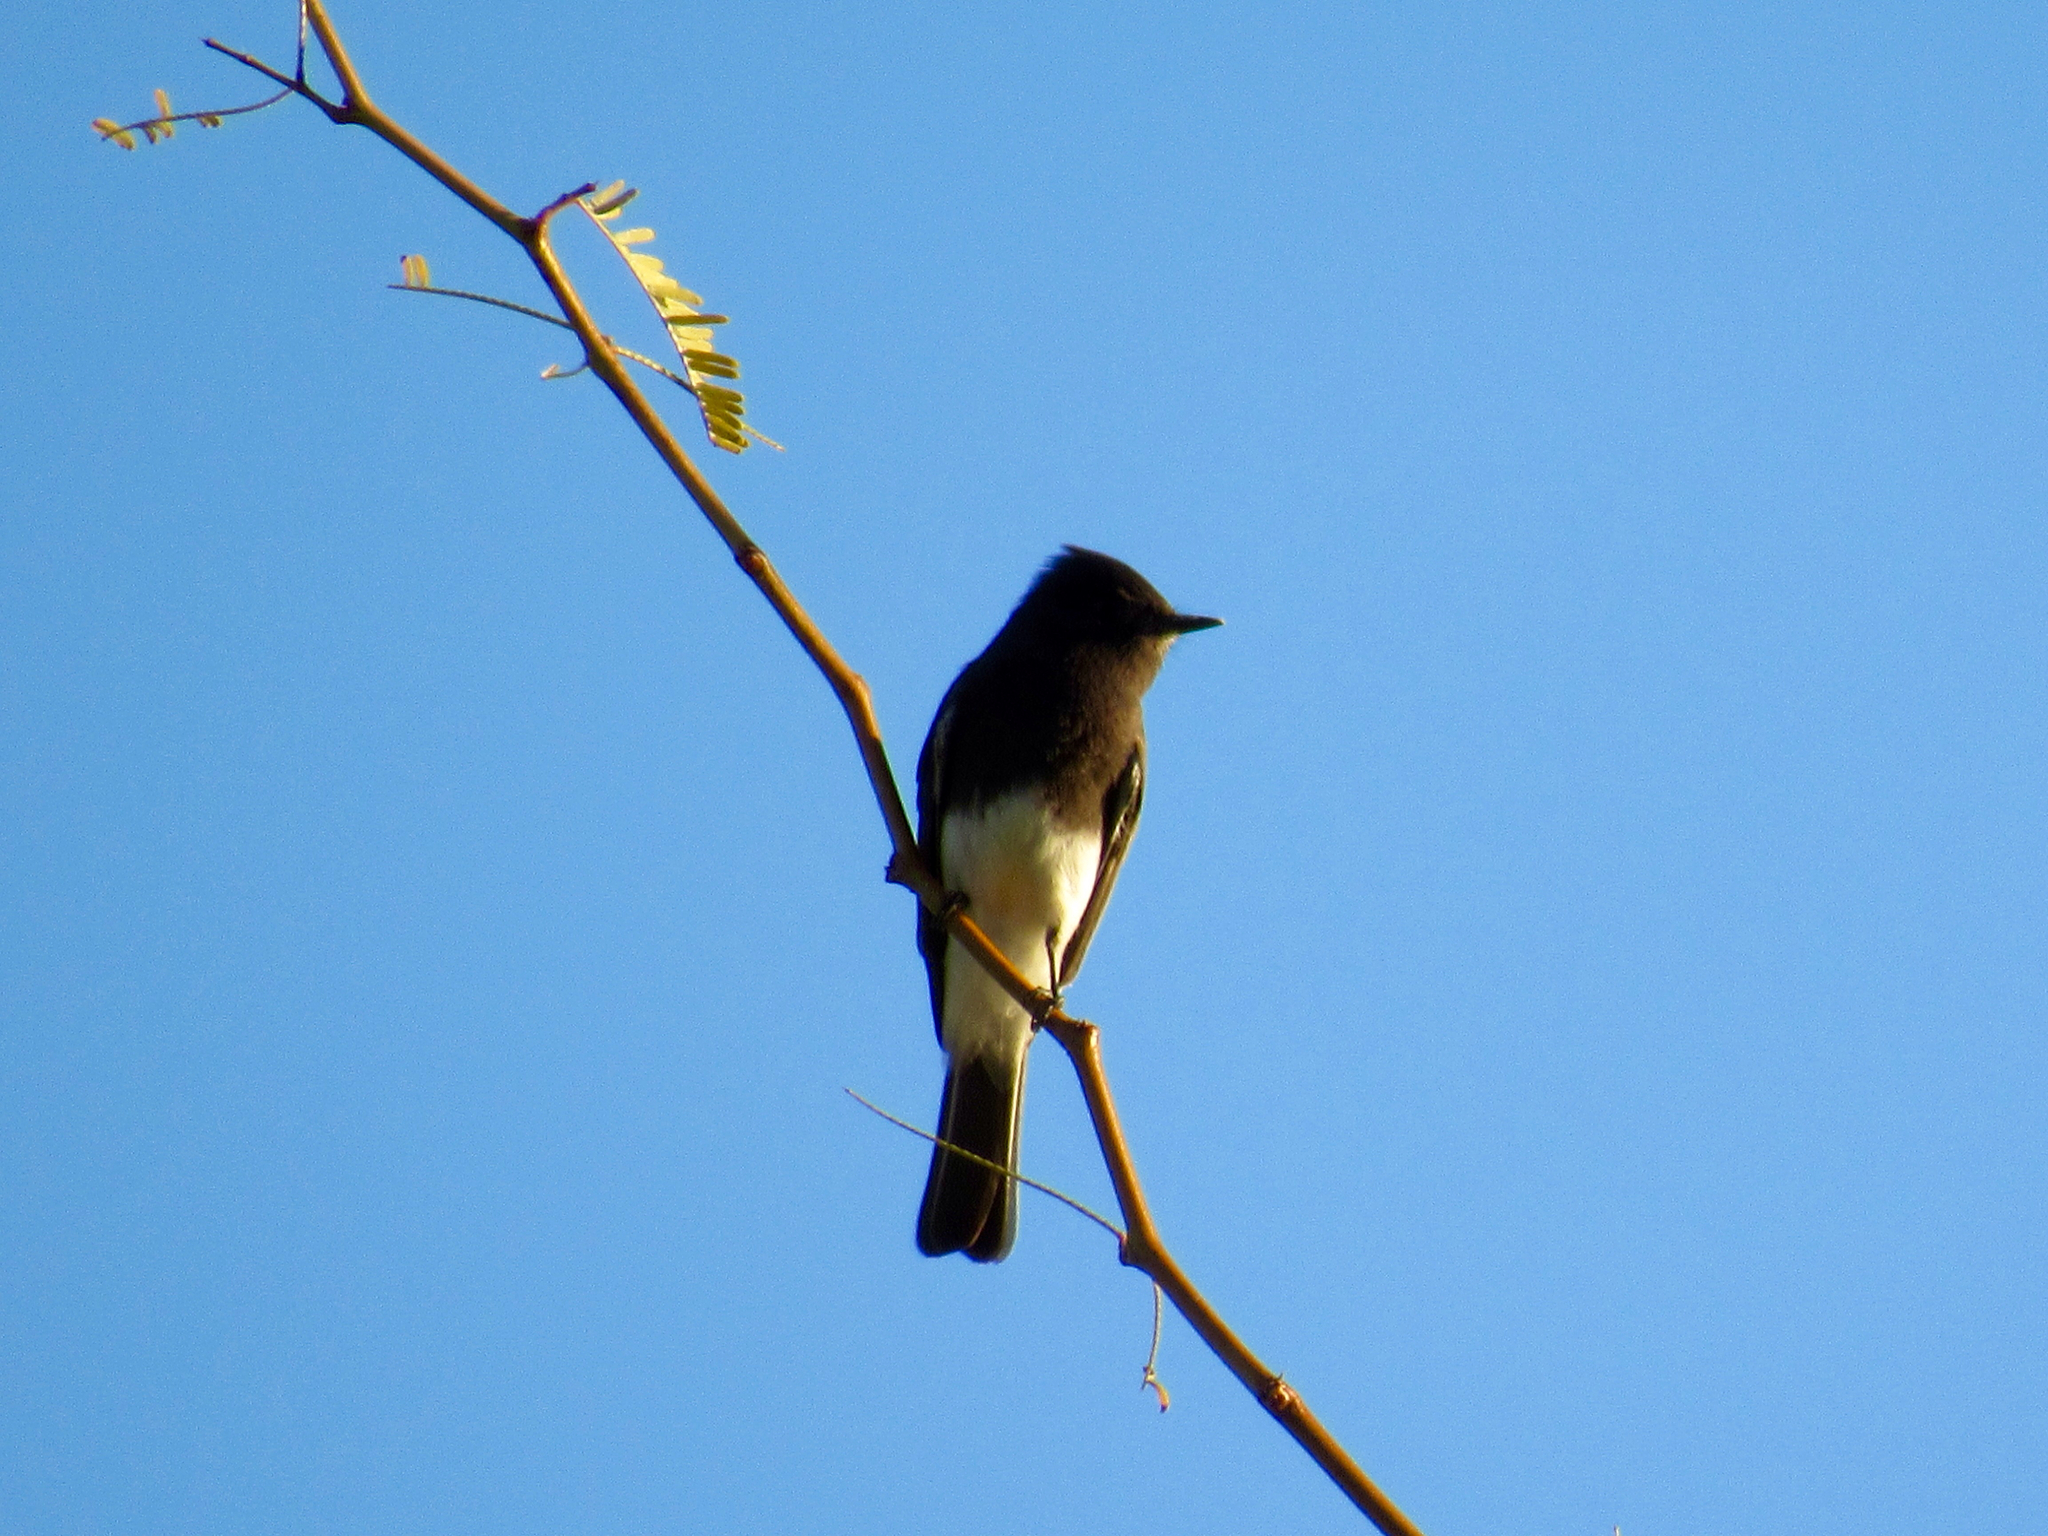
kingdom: Animalia
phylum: Chordata
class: Aves
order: Passeriformes
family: Tyrannidae
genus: Sayornis
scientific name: Sayornis nigricans
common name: Black phoebe
